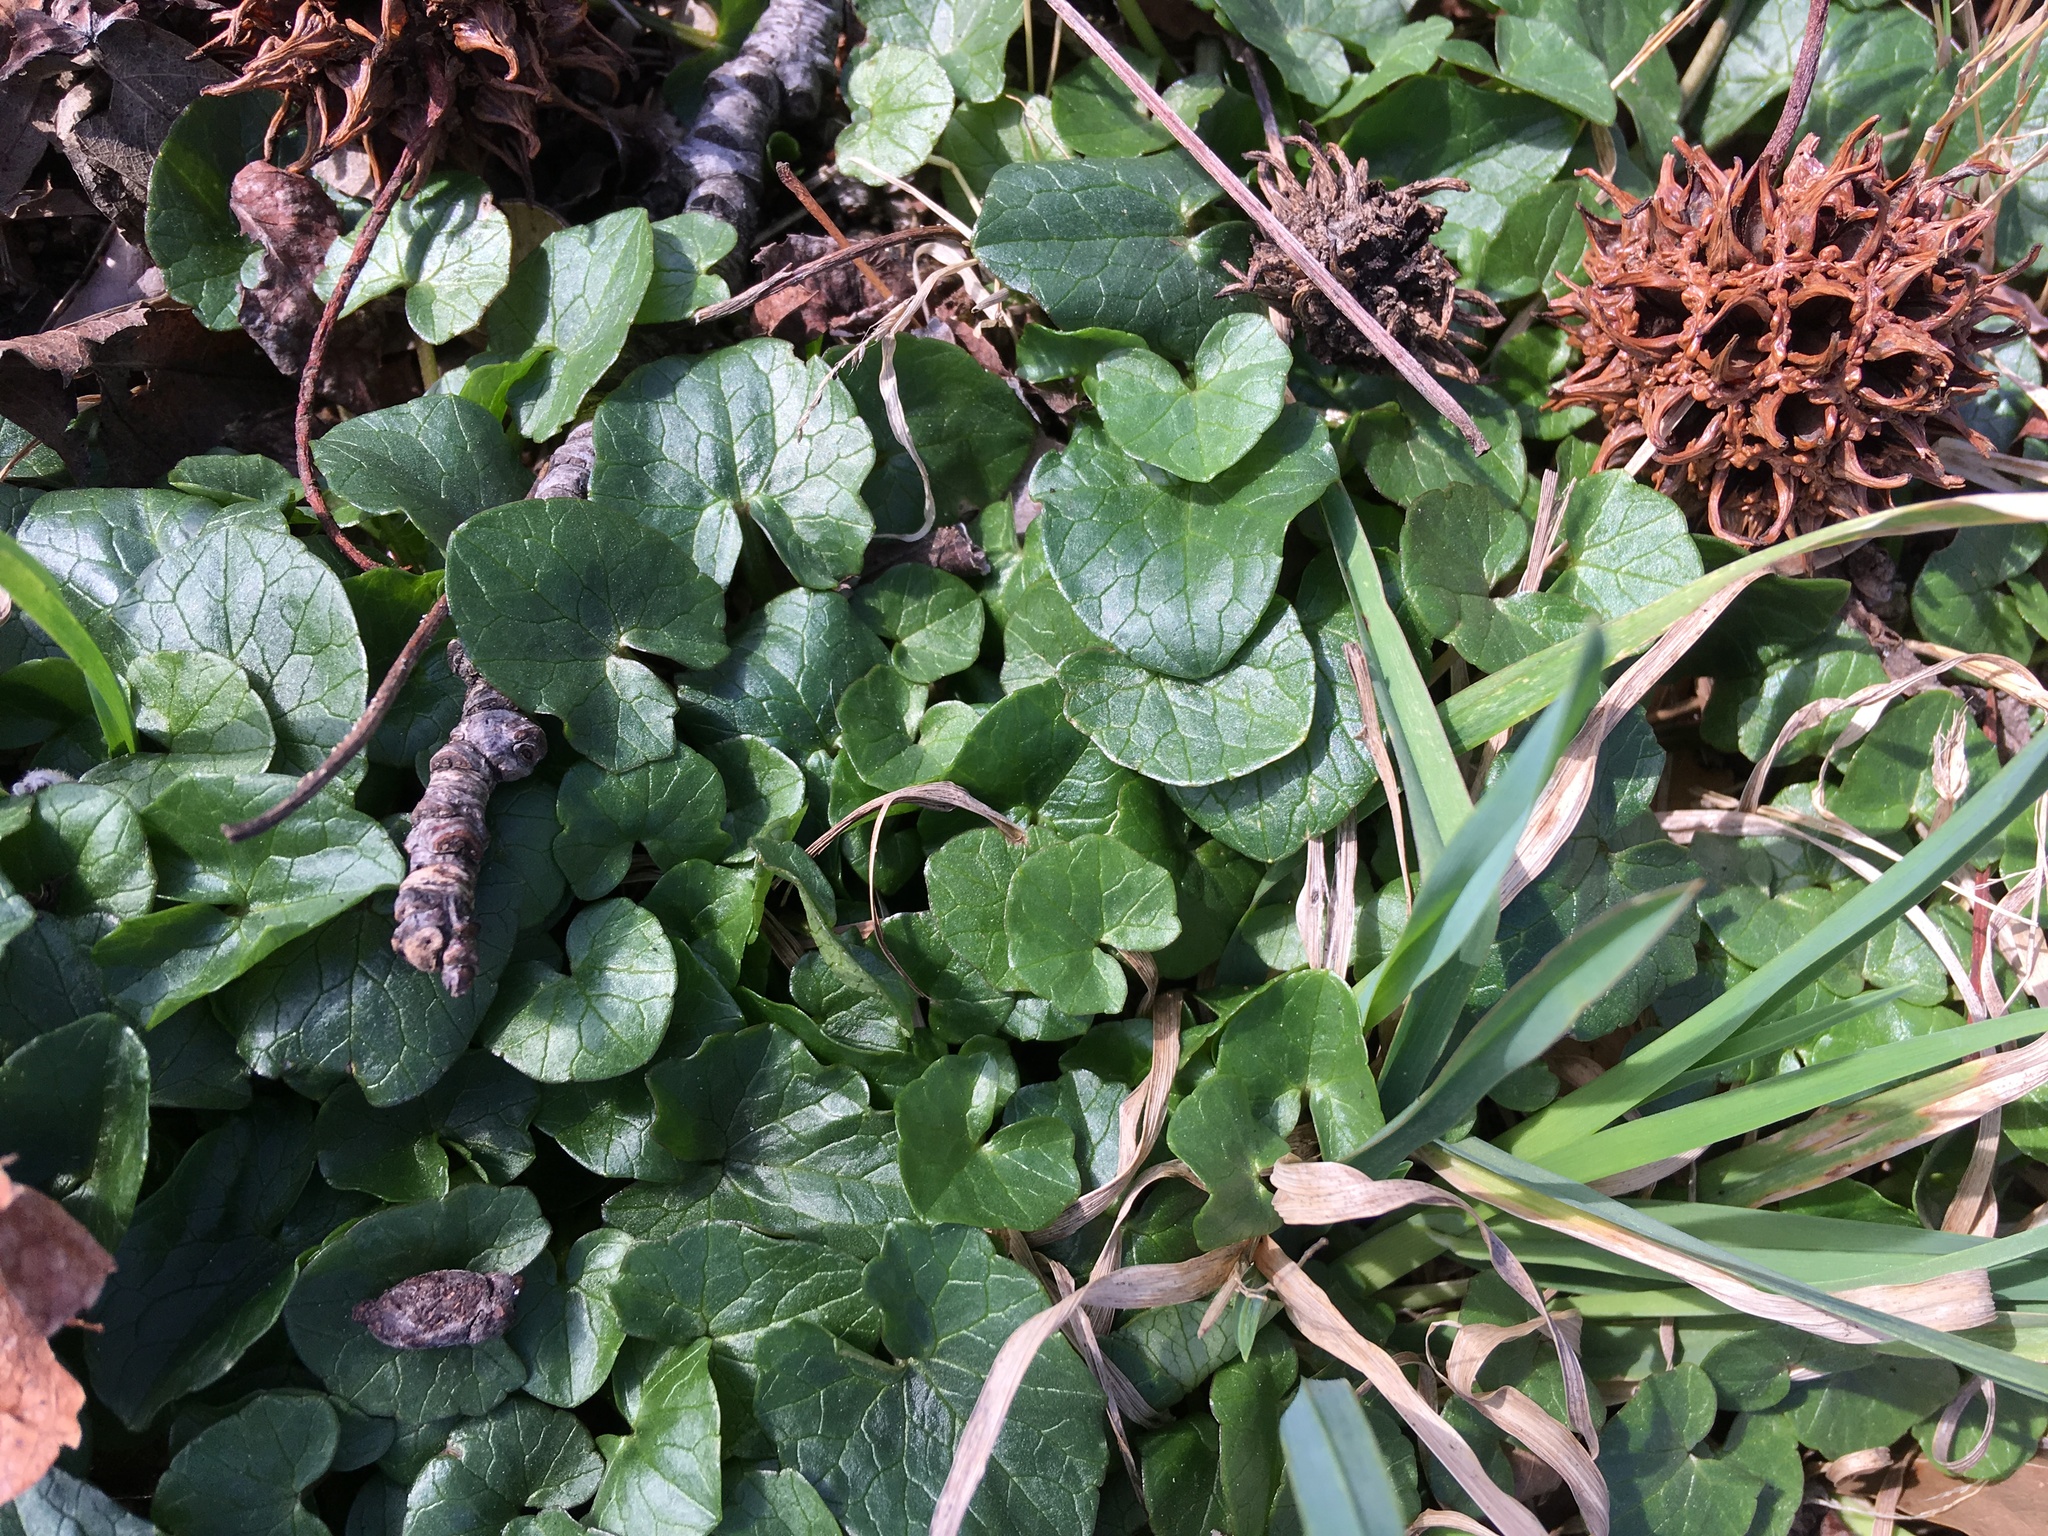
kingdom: Plantae
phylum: Tracheophyta
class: Magnoliopsida
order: Ranunculales
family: Ranunculaceae
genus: Ficaria
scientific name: Ficaria verna
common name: Lesser celandine
